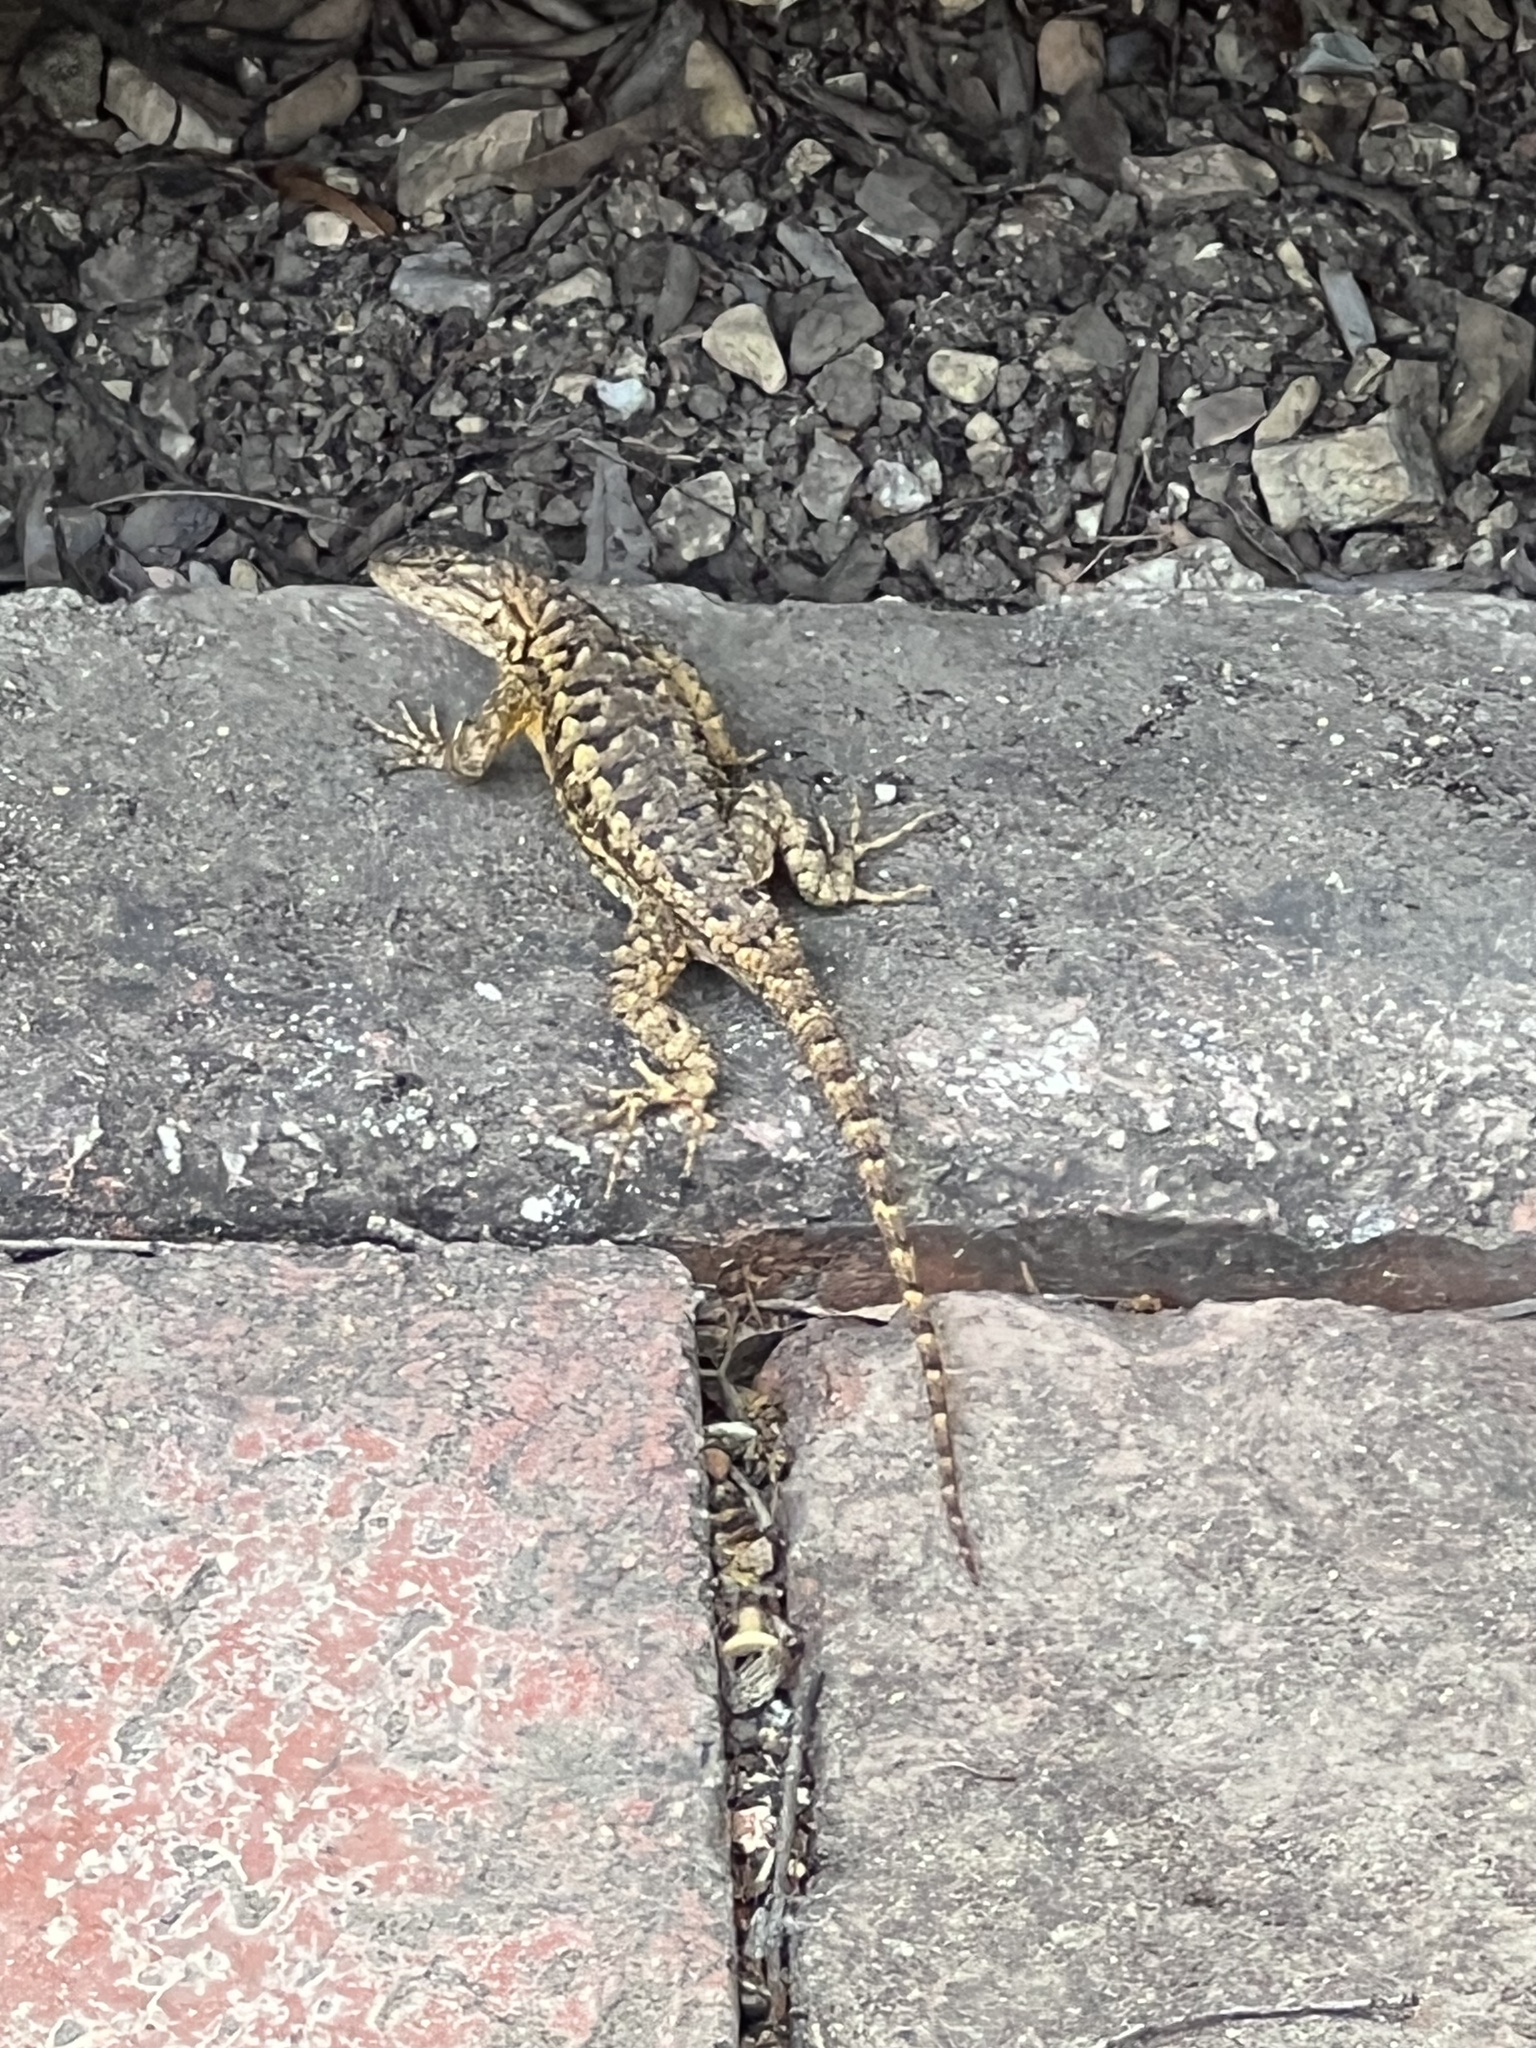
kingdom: Animalia
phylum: Chordata
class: Squamata
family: Phrynosomatidae
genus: Sceloporus
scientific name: Sceloporus occidentalis
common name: Western fence lizard
